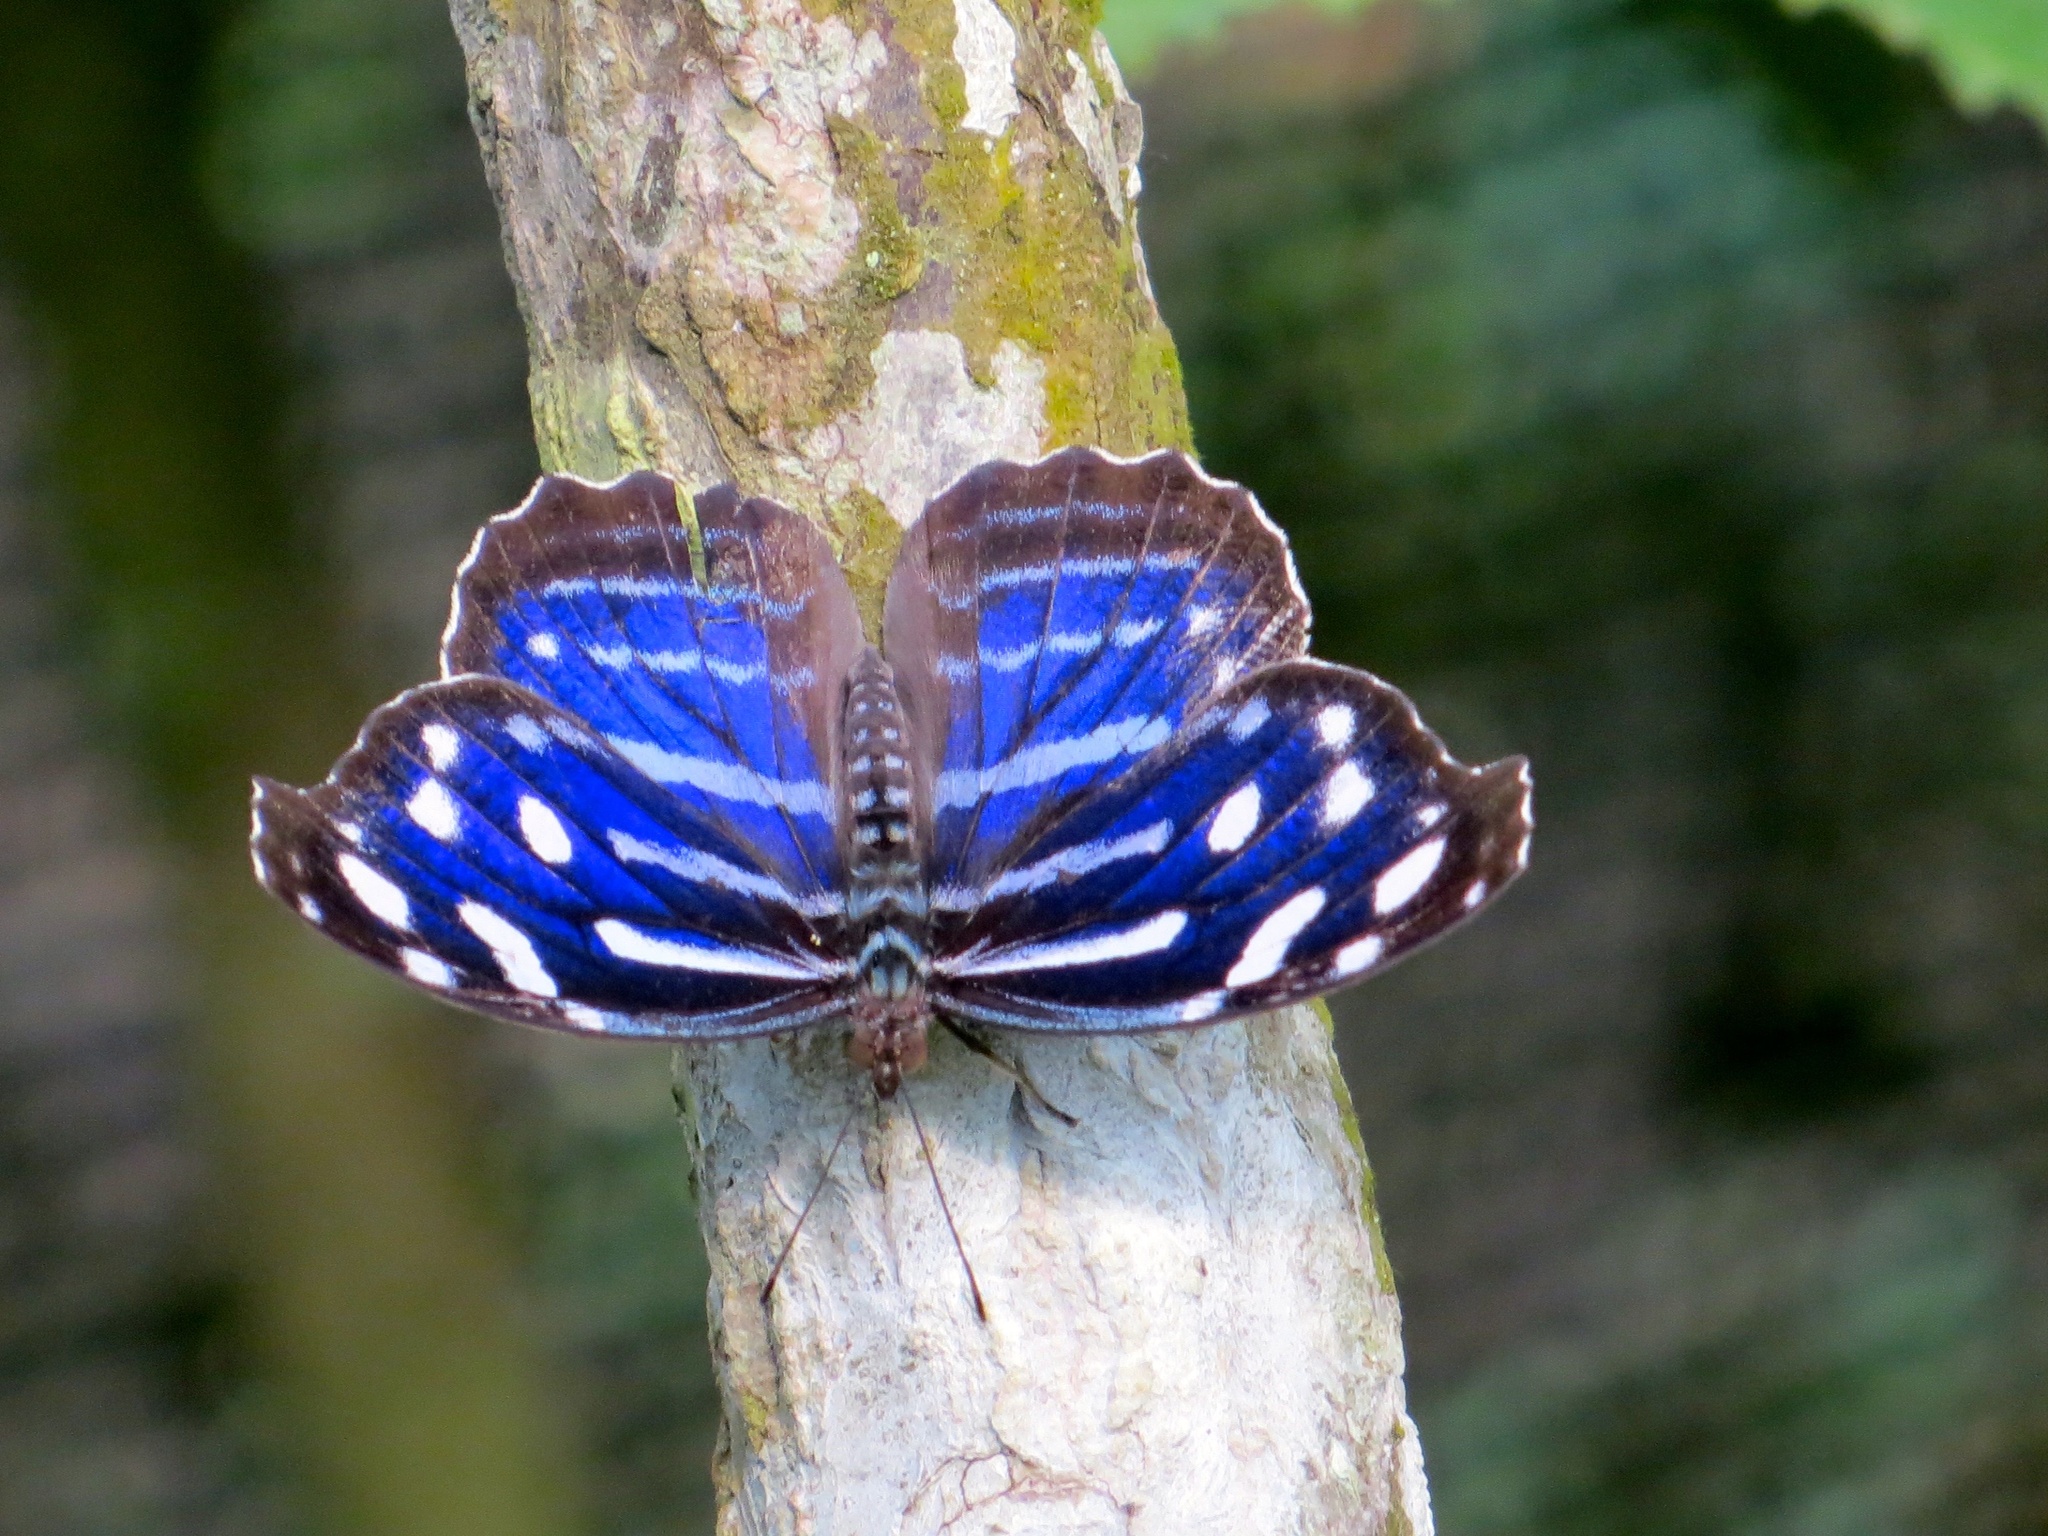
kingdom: Animalia
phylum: Arthropoda
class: Insecta
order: Lepidoptera
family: Nymphalidae
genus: Myscelia
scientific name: Myscelia cyaniris
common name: Whitened bluewing
